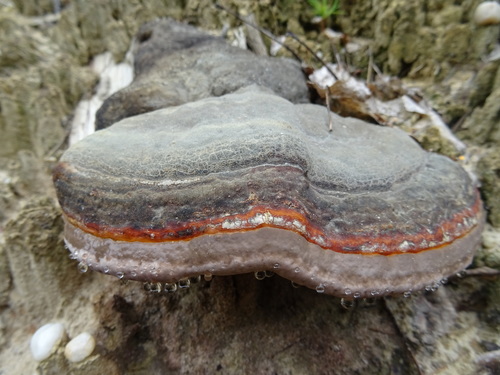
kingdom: Fungi
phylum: Basidiomycota
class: Agaricomycetes
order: Polyporales
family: Fomitopsidaceae
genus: Fomitopsis
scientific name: Fomitopsis pinicola
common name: Red-belted bracket
